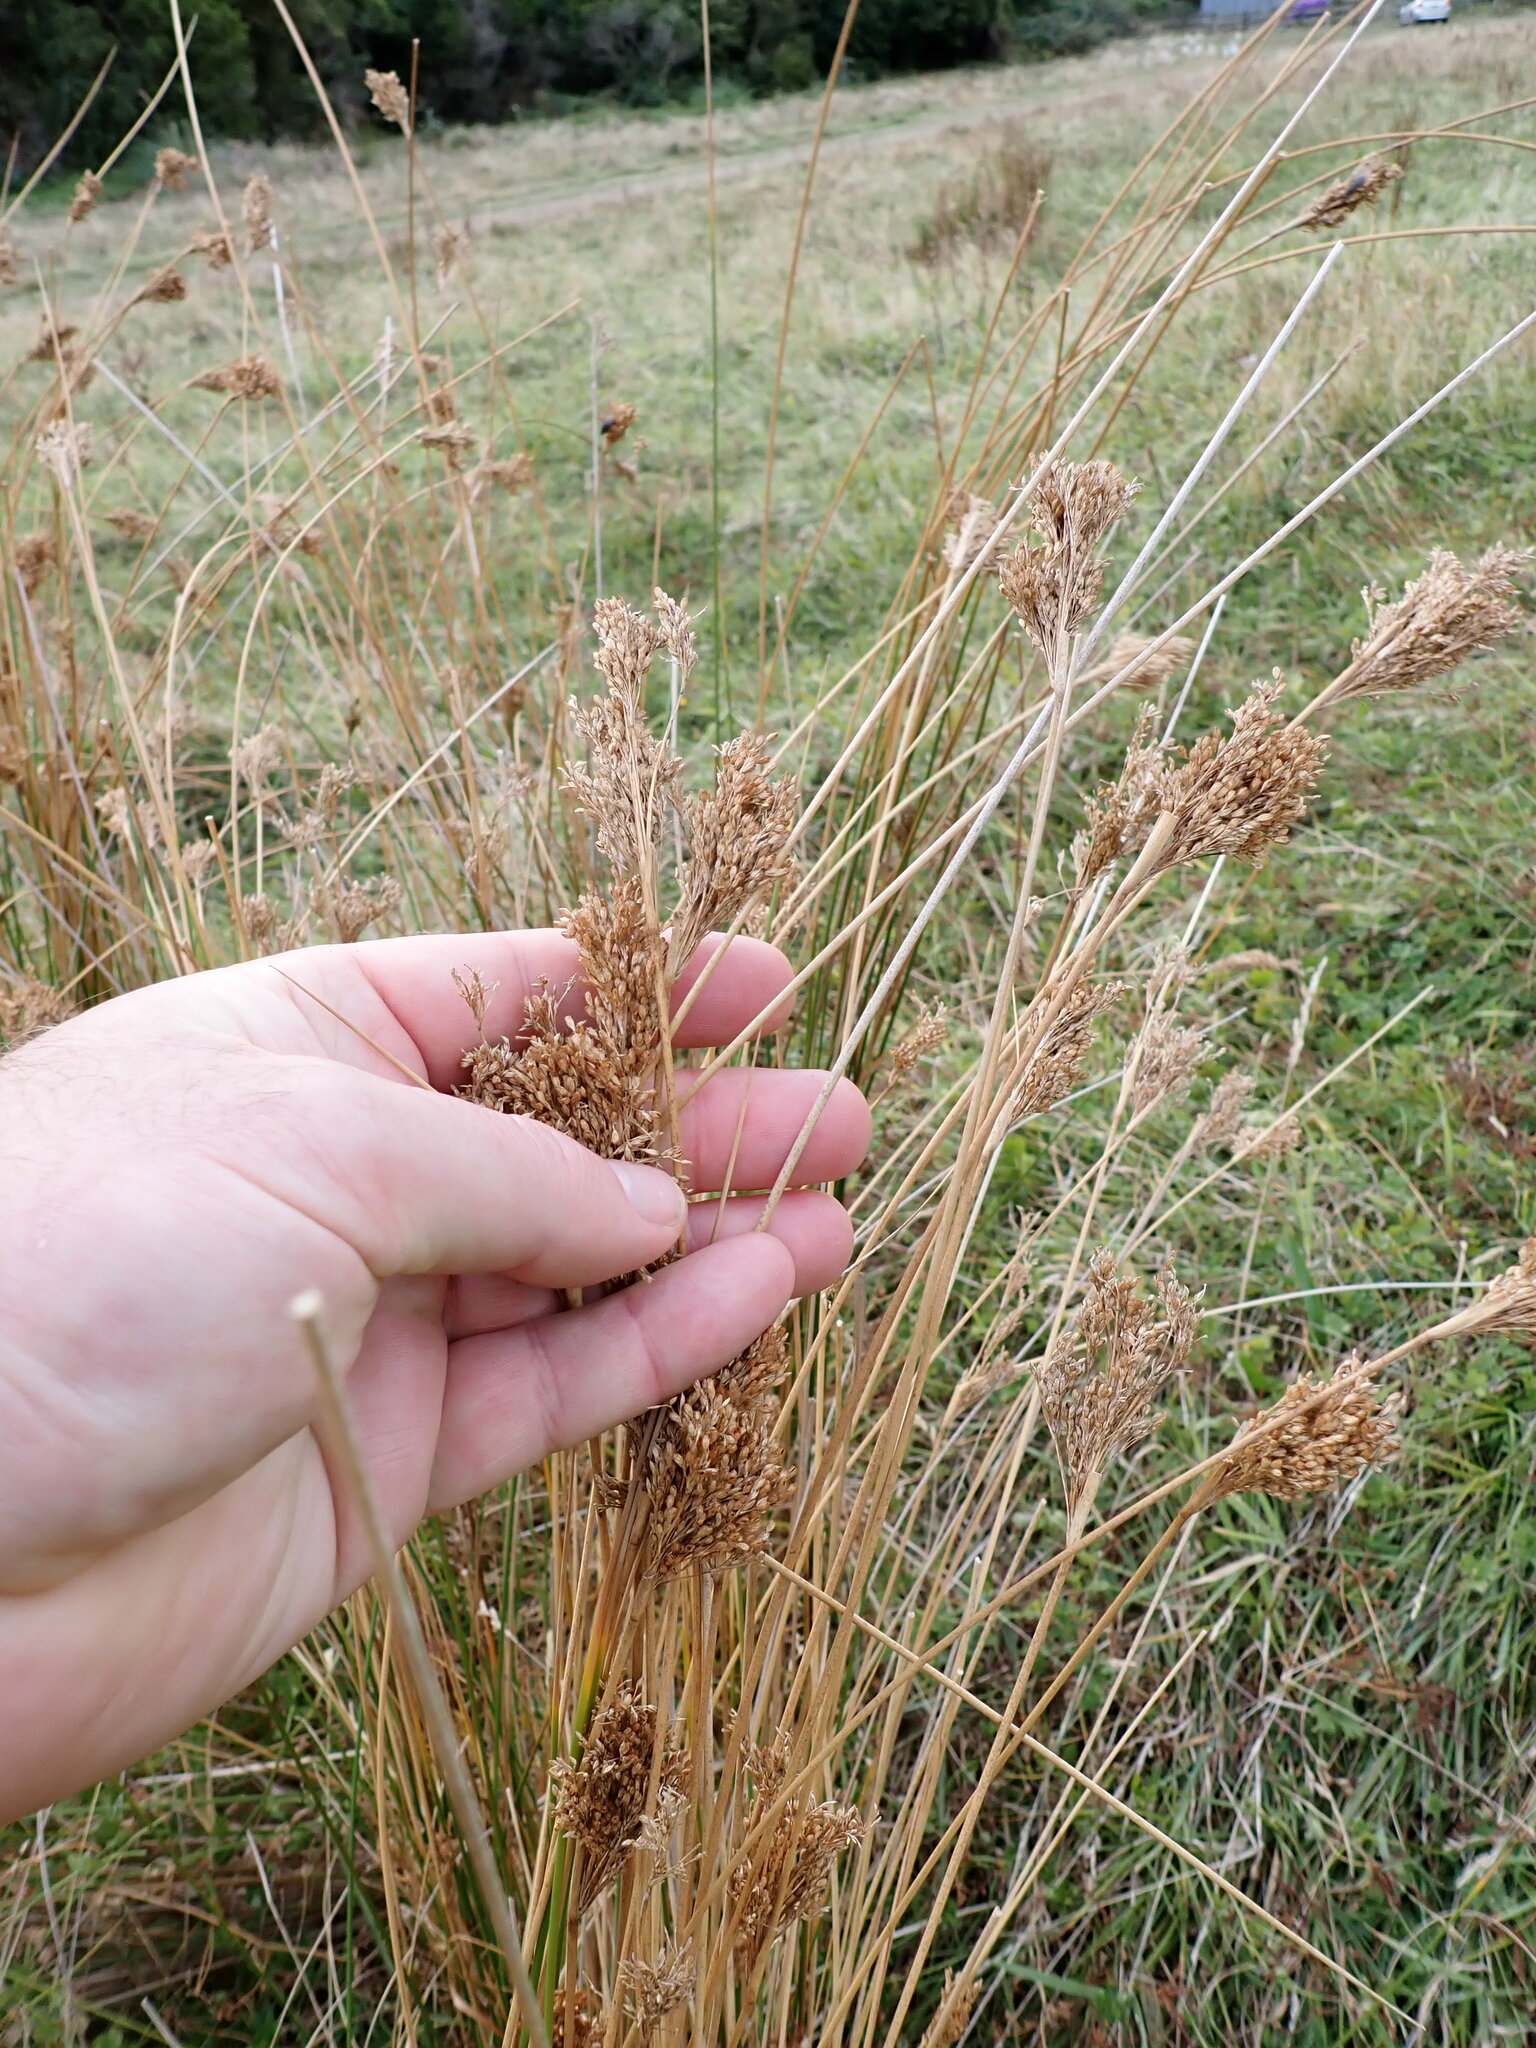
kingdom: Plantae
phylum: Tracheophyta
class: Liliopsida
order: Poales
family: Juncaceae
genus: Juncus
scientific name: Juncus sarophorus
